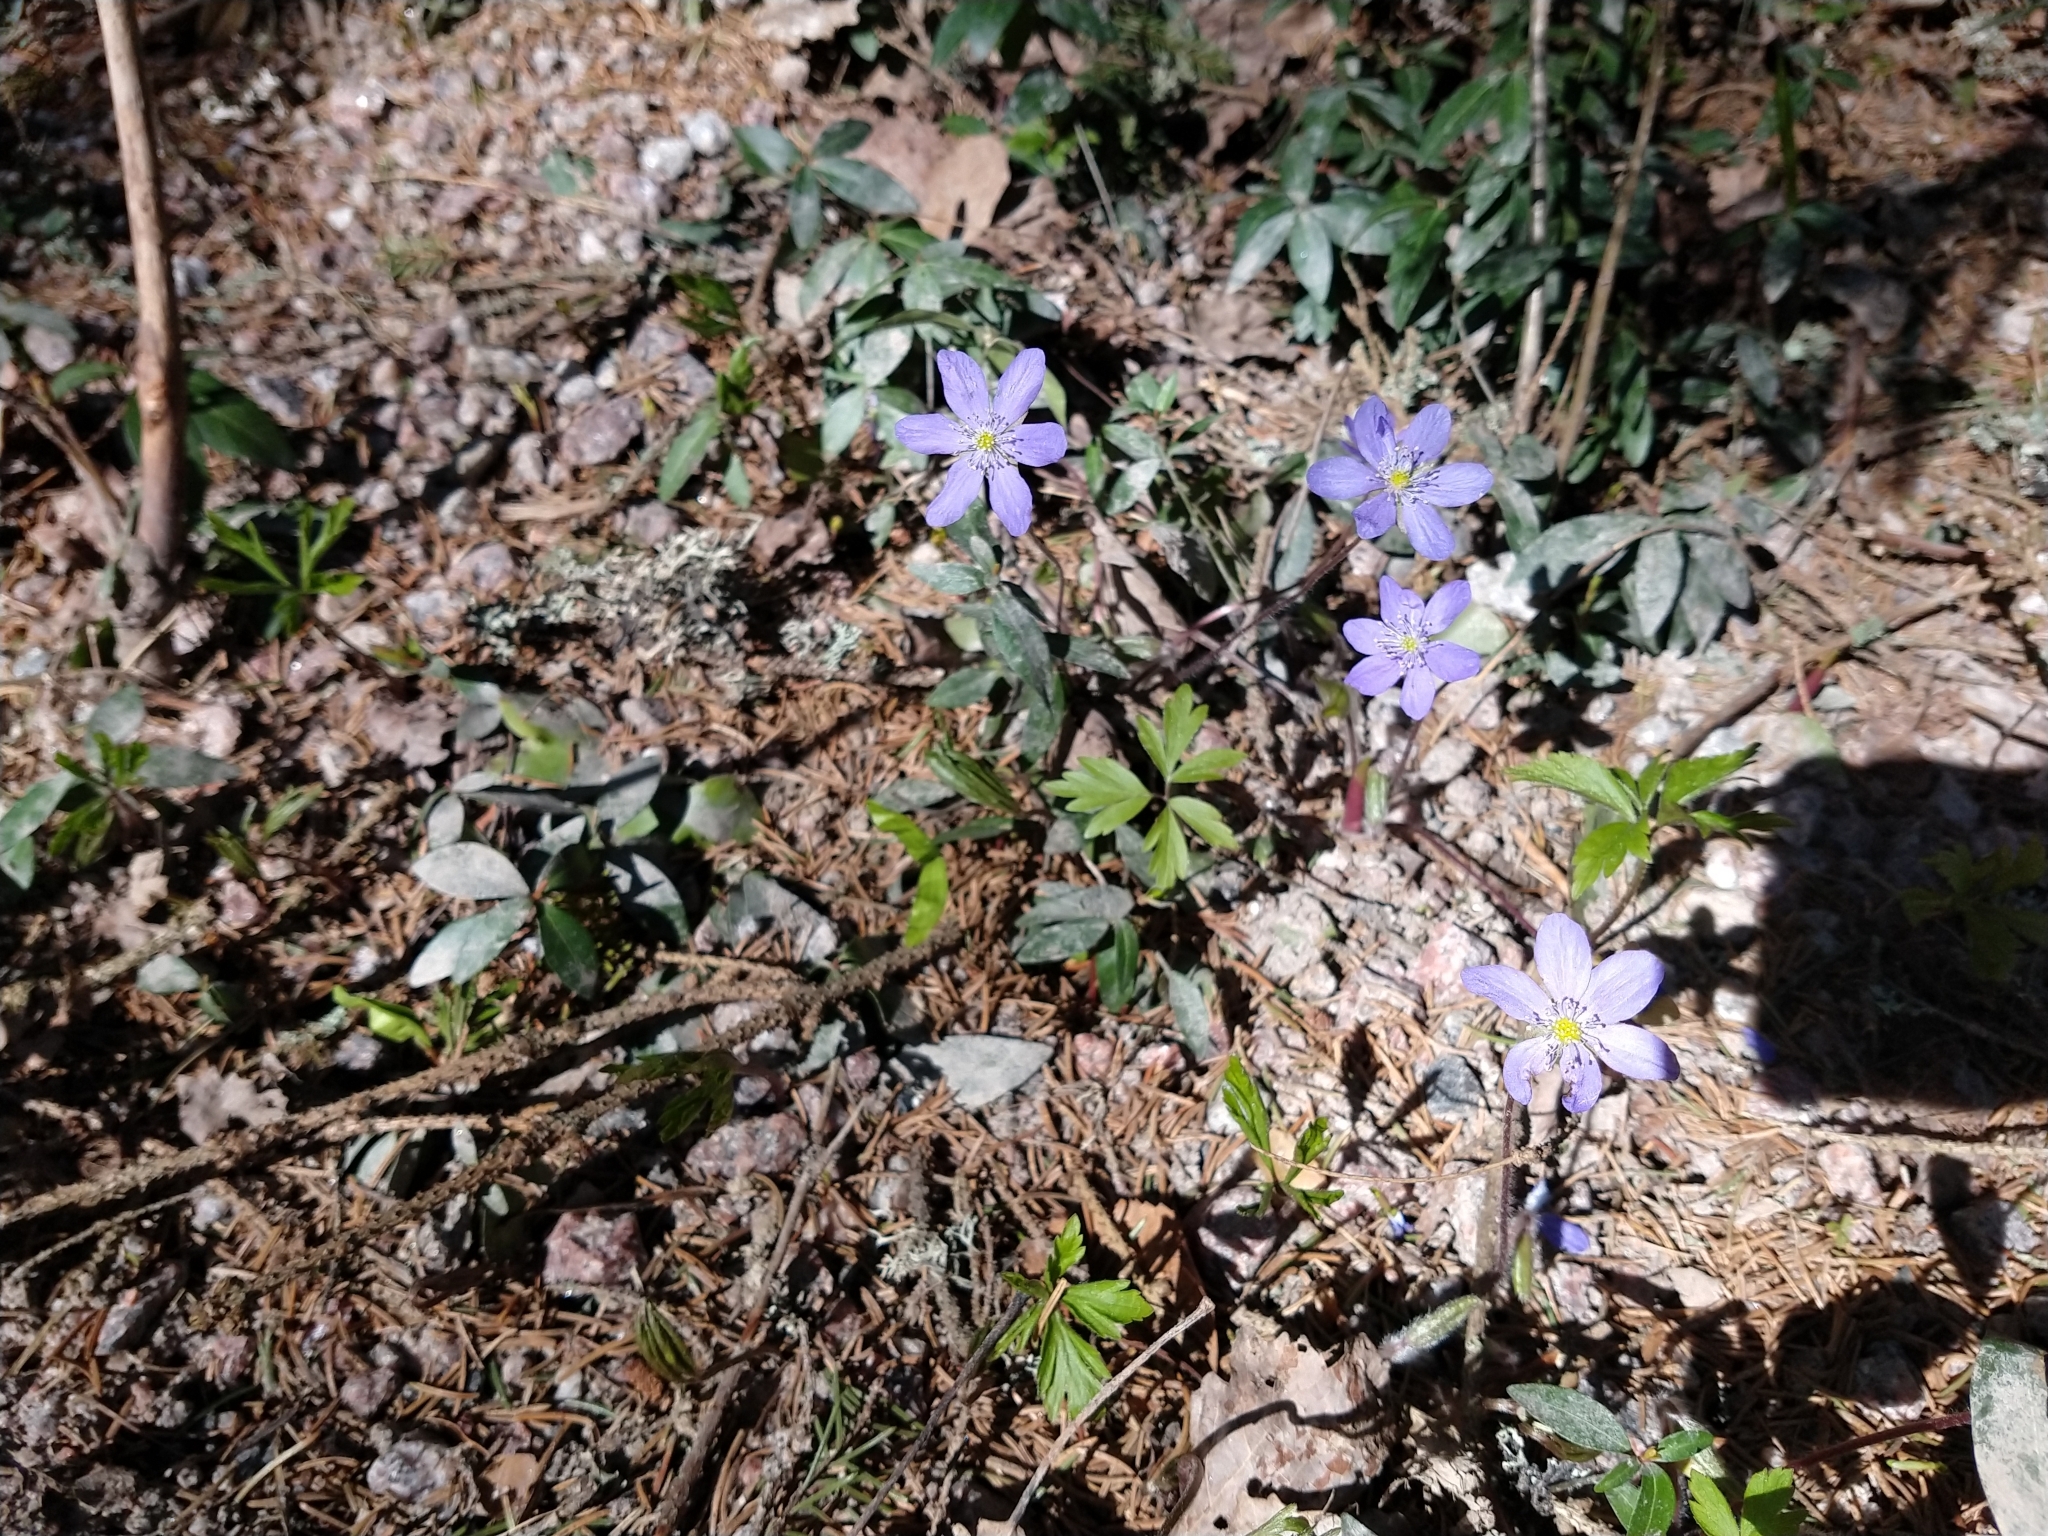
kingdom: Plantae
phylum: Tracheophyta
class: Magnoliopsida
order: Ranunculales
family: Ranunculaceae
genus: Hepatica
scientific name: Hepatica nobilis
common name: Liverleaf
